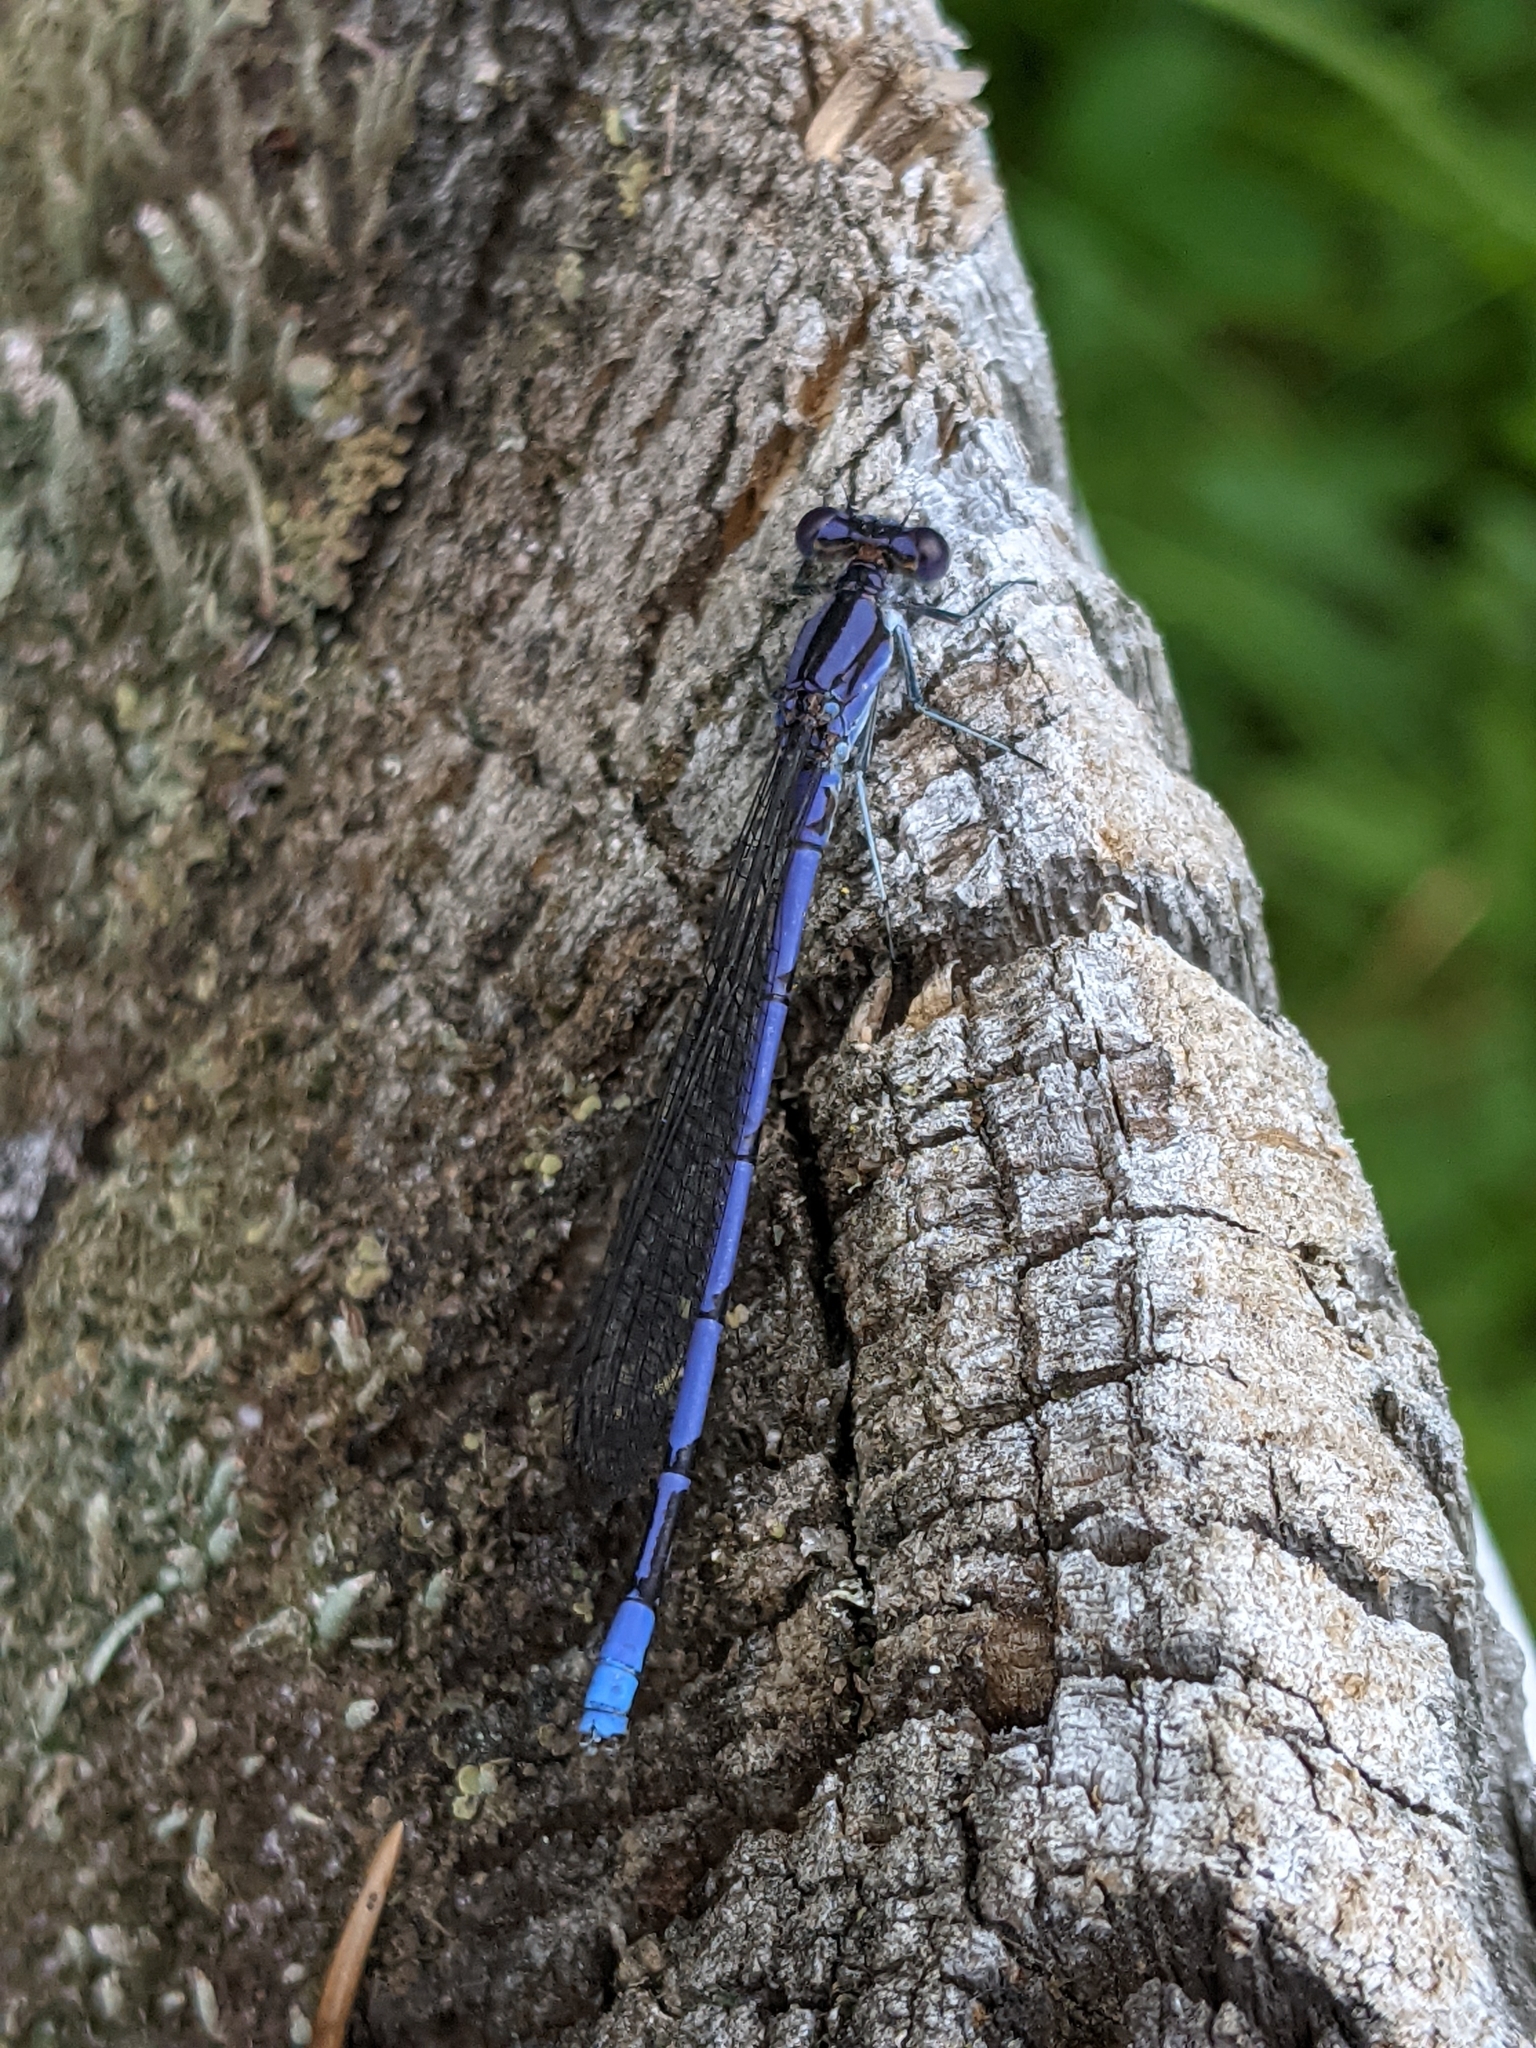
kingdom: Animalia
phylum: Arthropoda
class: Insecta
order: Odonata
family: Coenagrionidae
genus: Argia
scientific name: Argia fumipennis
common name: Variable dancer
